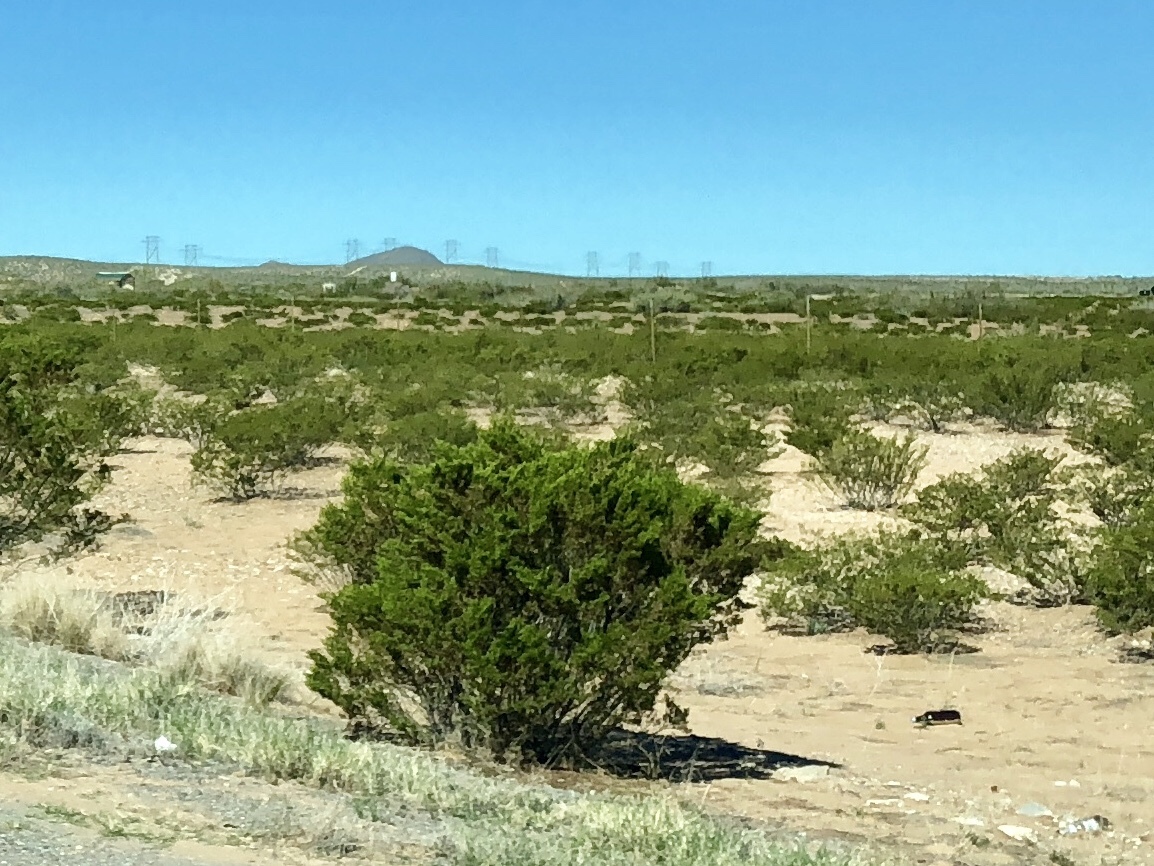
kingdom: Plantae
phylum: Tracheophyta
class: Magnoliopsida
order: Zygophyllales
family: Zygophyllaceae
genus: Larrea
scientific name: Larrea tridentata
